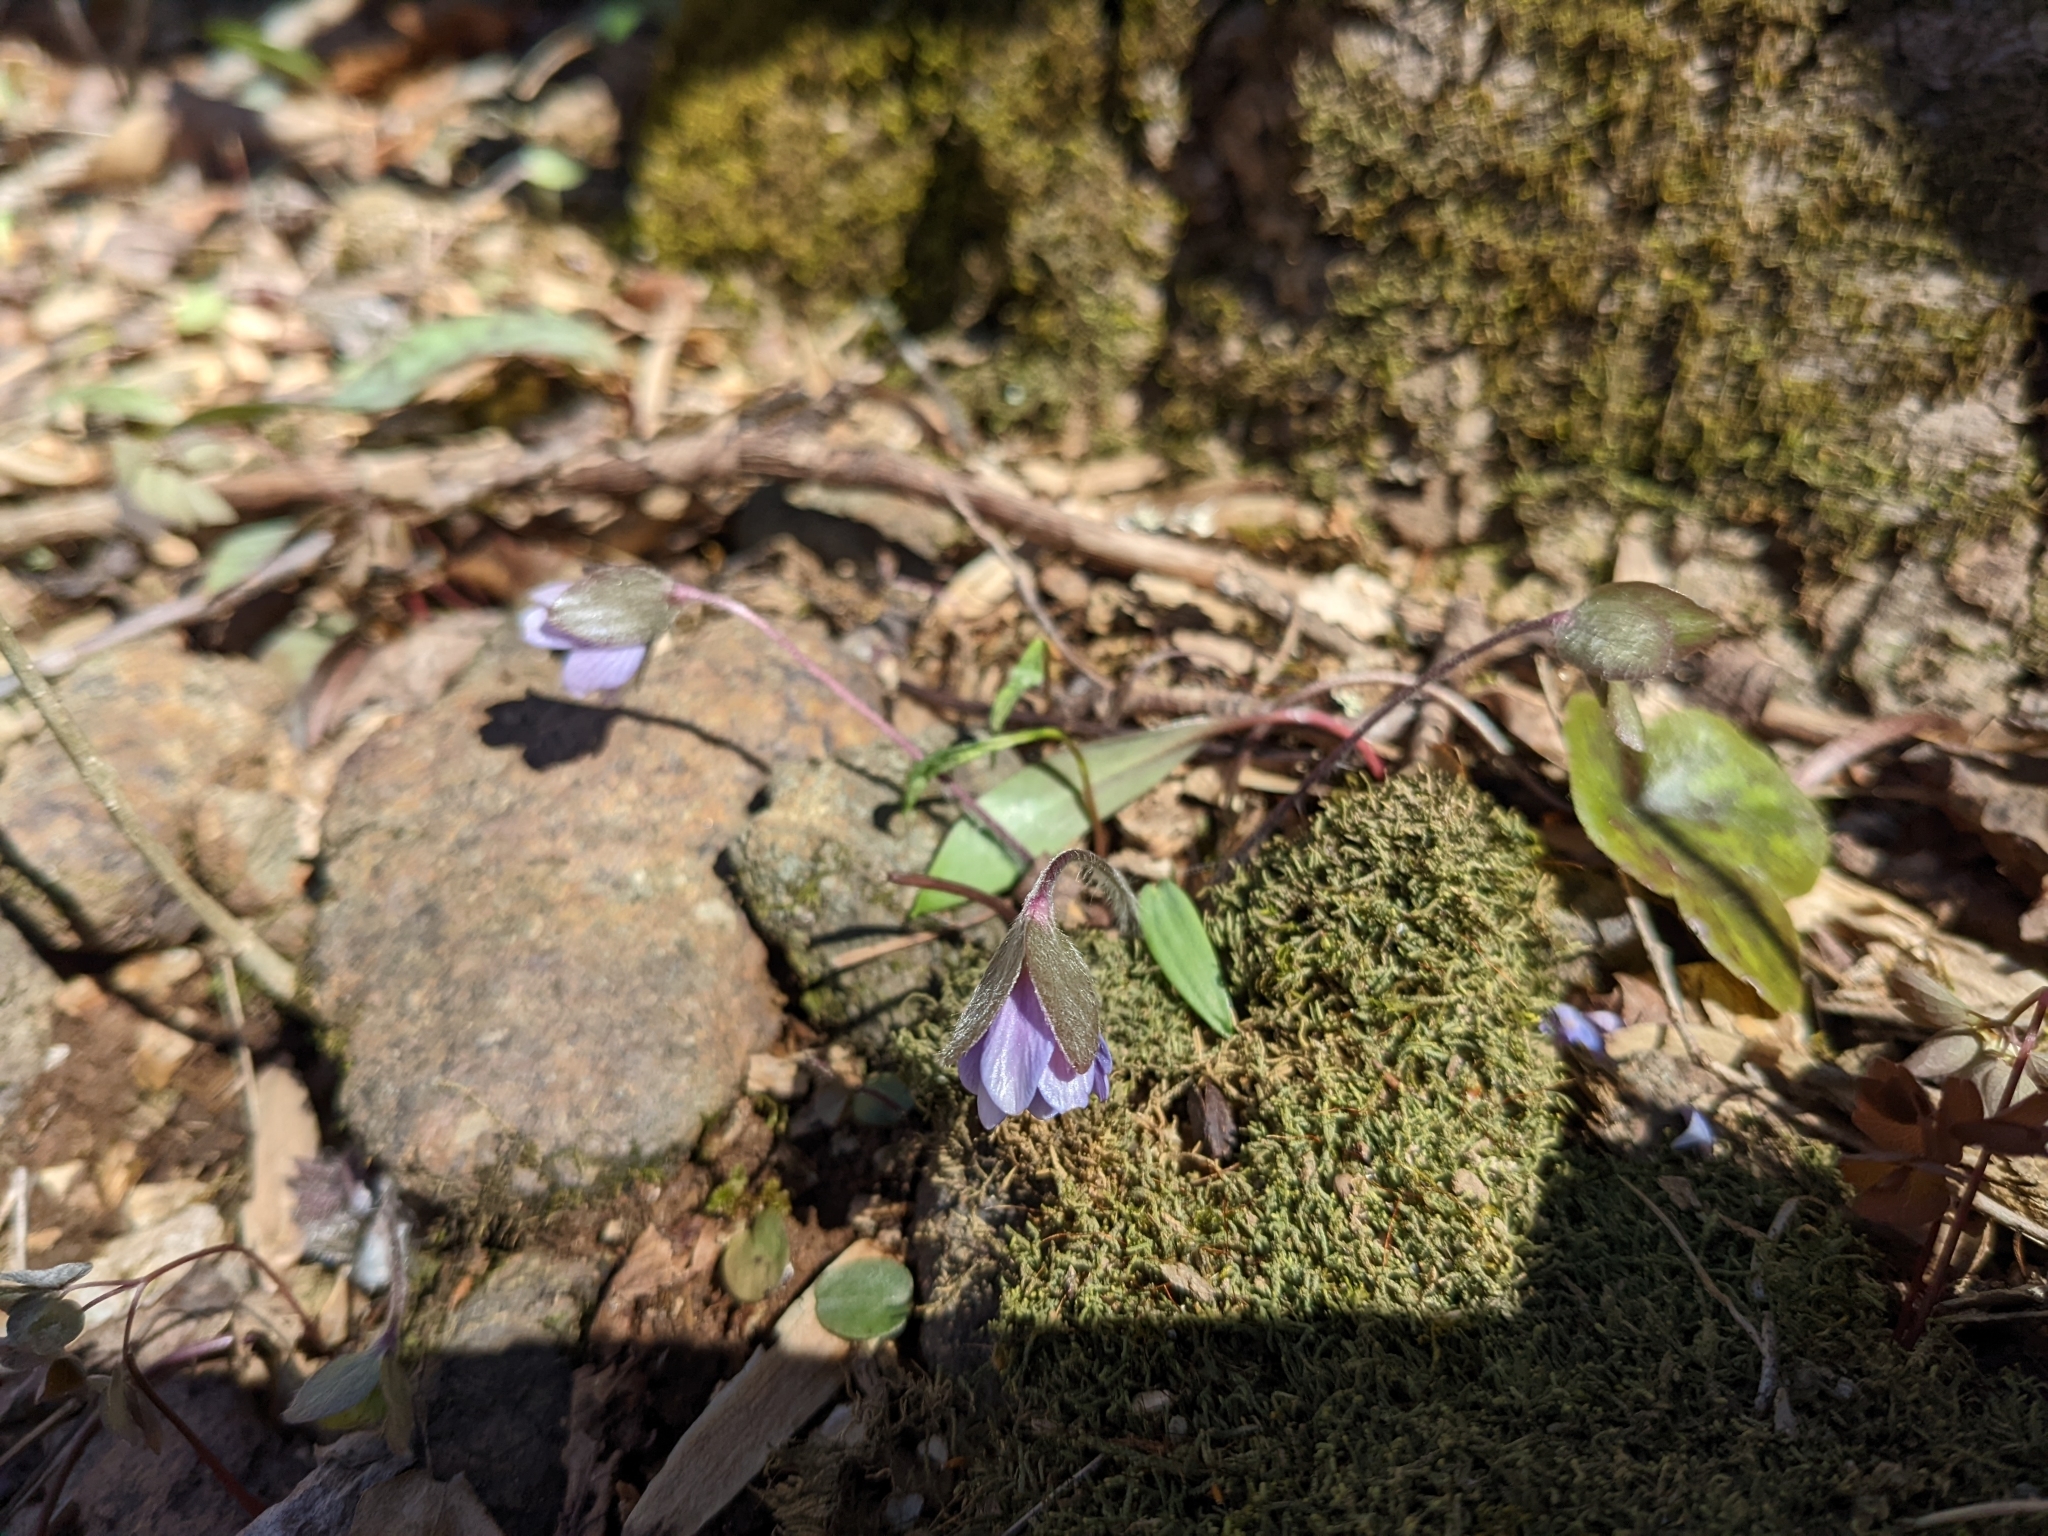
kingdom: Plantae
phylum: Tracheophyta
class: Magnoliopsida
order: Ranunculales
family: Ranunculaceae
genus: Hepatica
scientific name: Hepatica americana
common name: American hepatica
